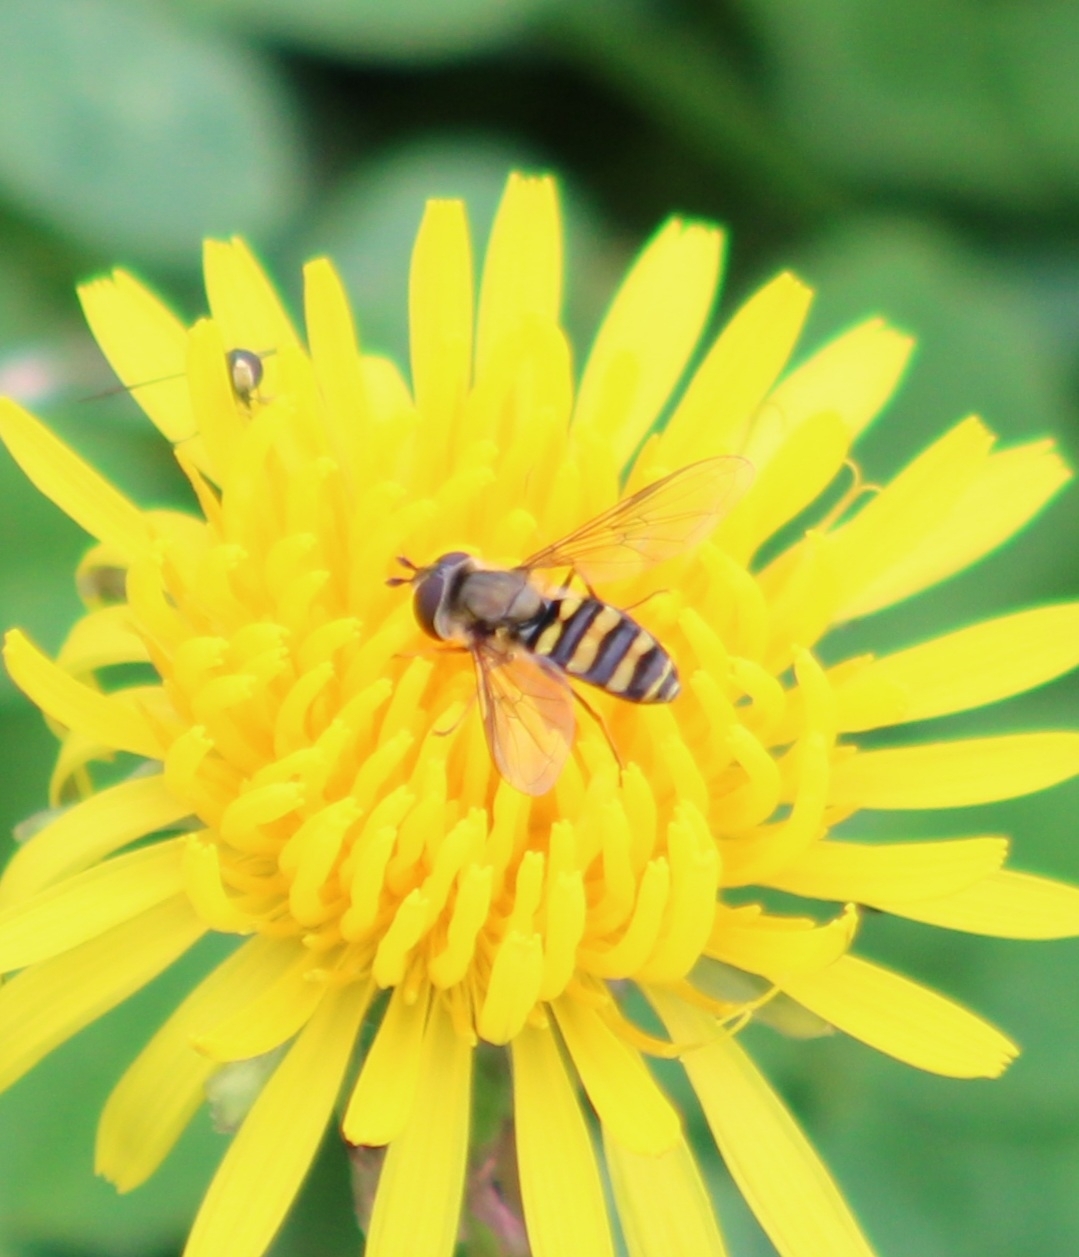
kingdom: Animalia
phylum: Arthropoda
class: Insecta
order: Diptera
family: Syrphidae
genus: Eupeodes
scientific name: Eupeodes
